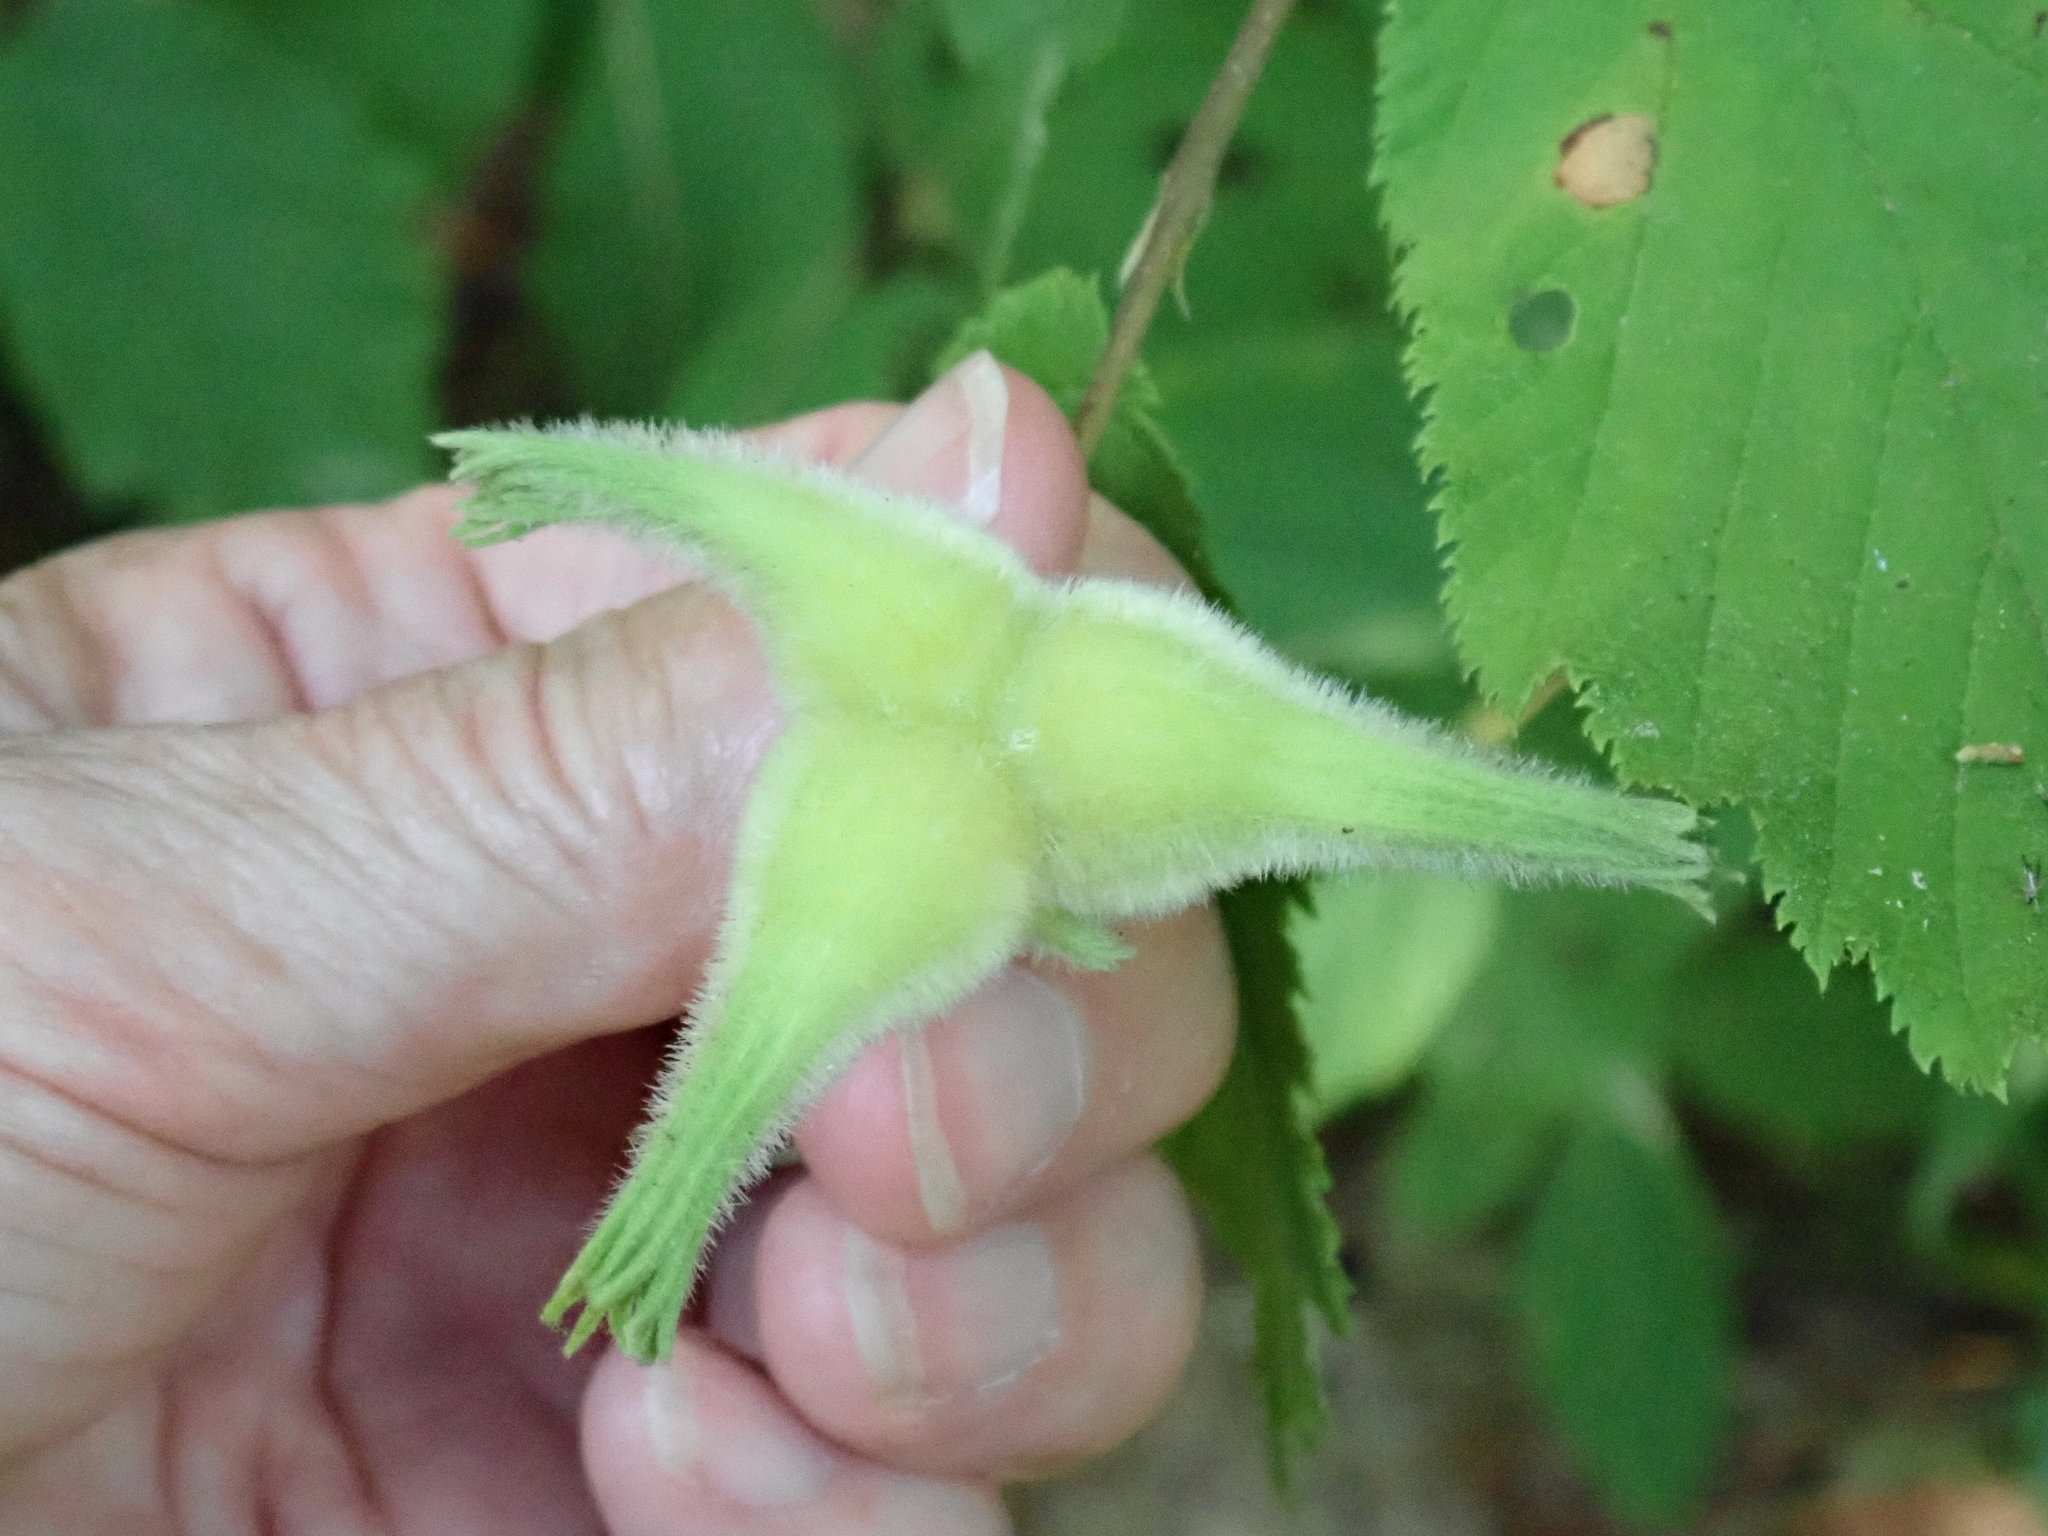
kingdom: Plantae
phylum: Tracheophyta
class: Magnoliopsida
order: Fagales
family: Betulaceae
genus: Corylus
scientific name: Corylus cornuta
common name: Beaked hazel
